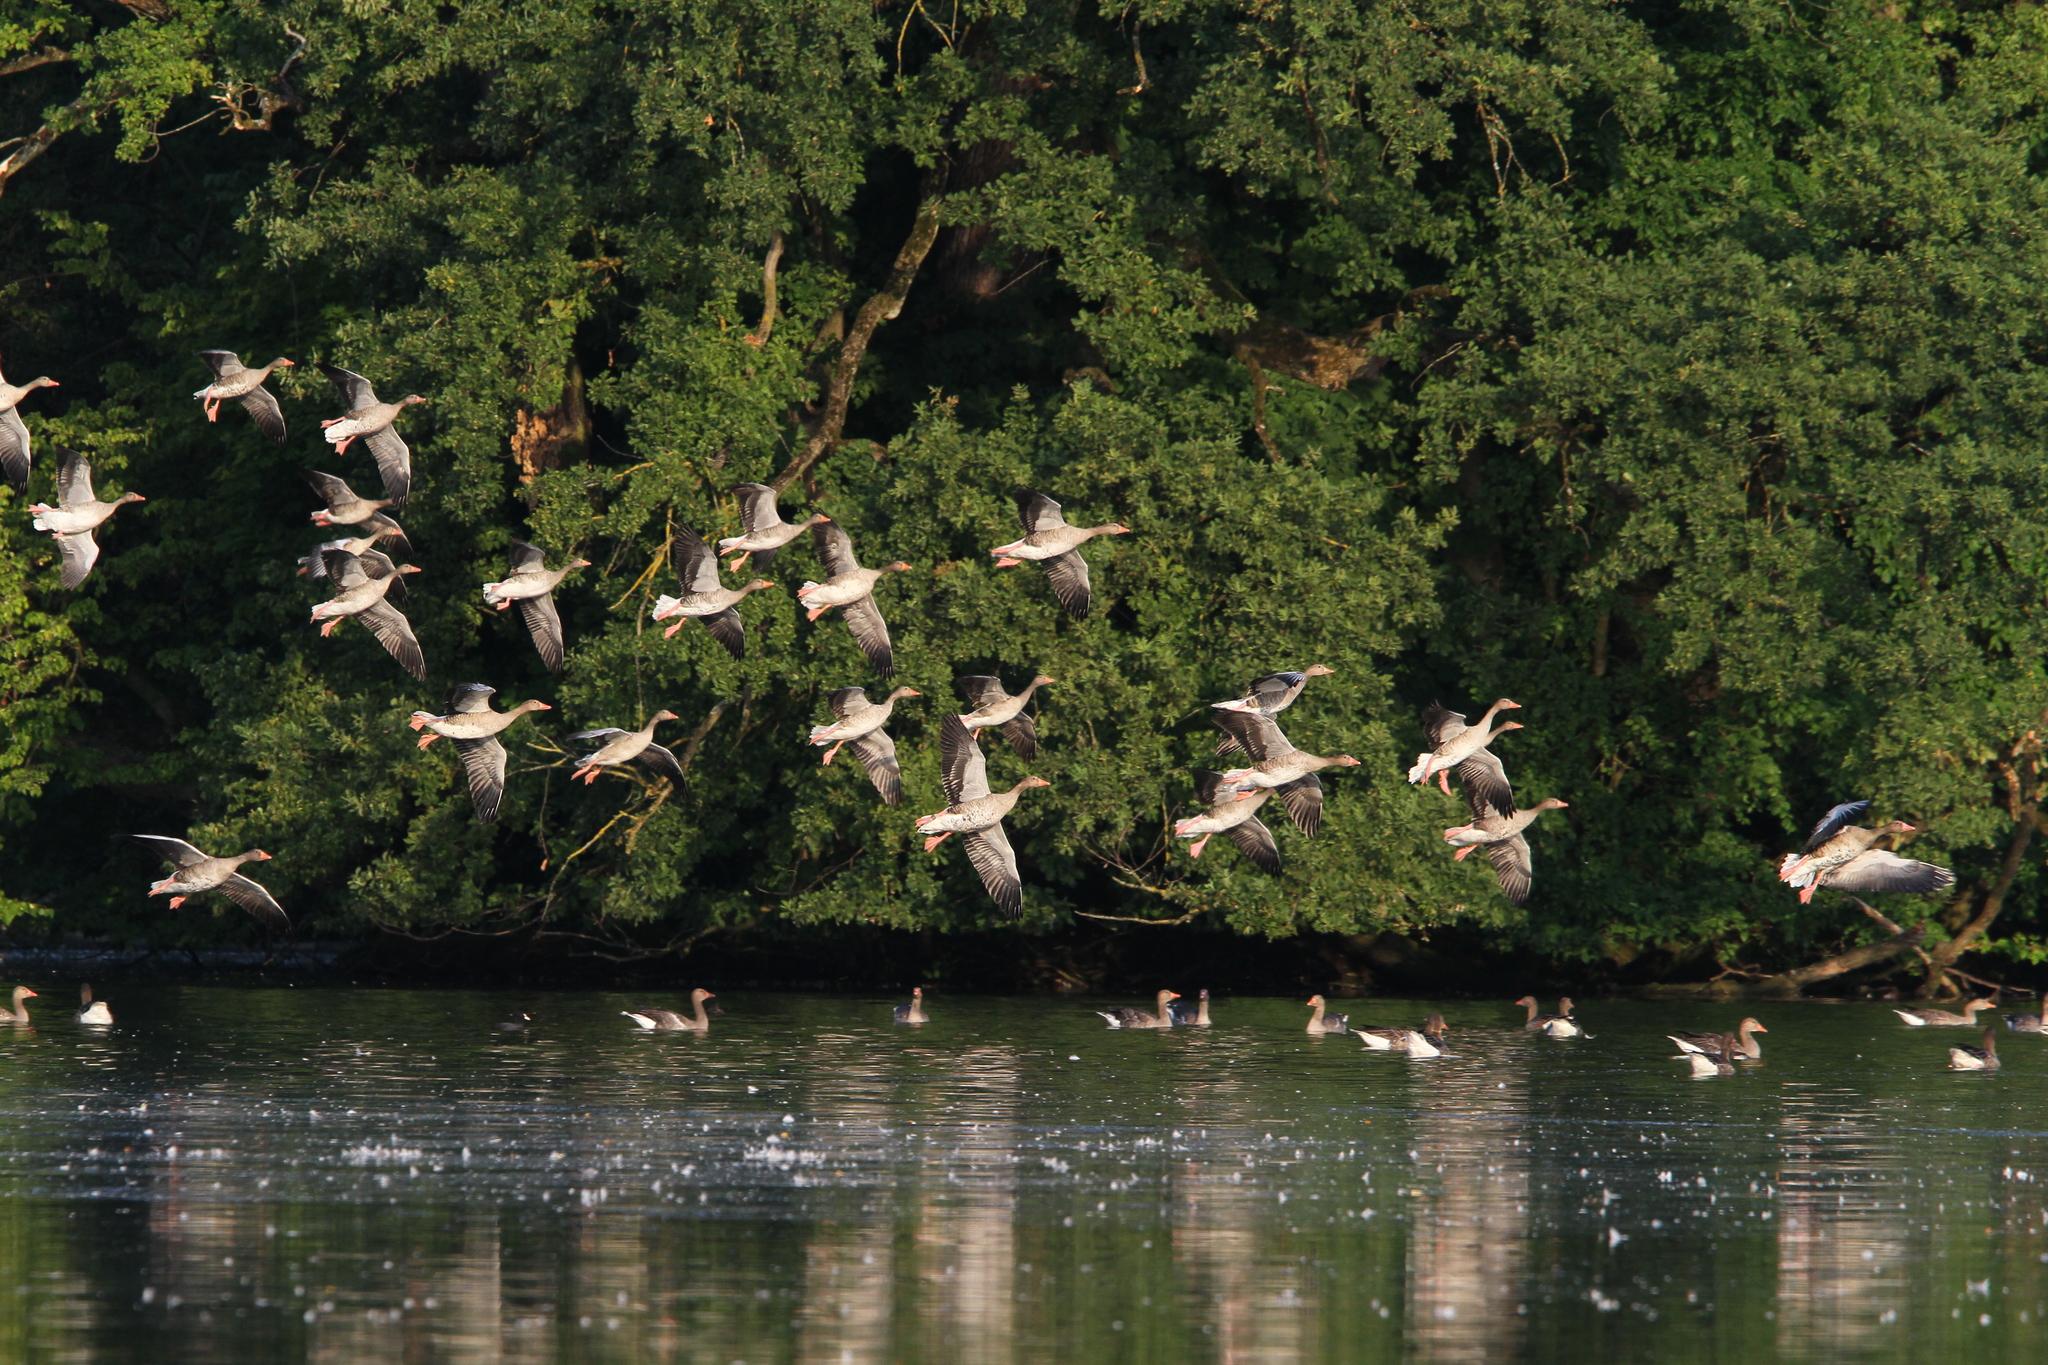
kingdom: Animalia
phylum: Chordata
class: Aves
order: Anseriformes
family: Anatidae
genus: Anser
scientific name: Anser anser
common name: Greylag goose
